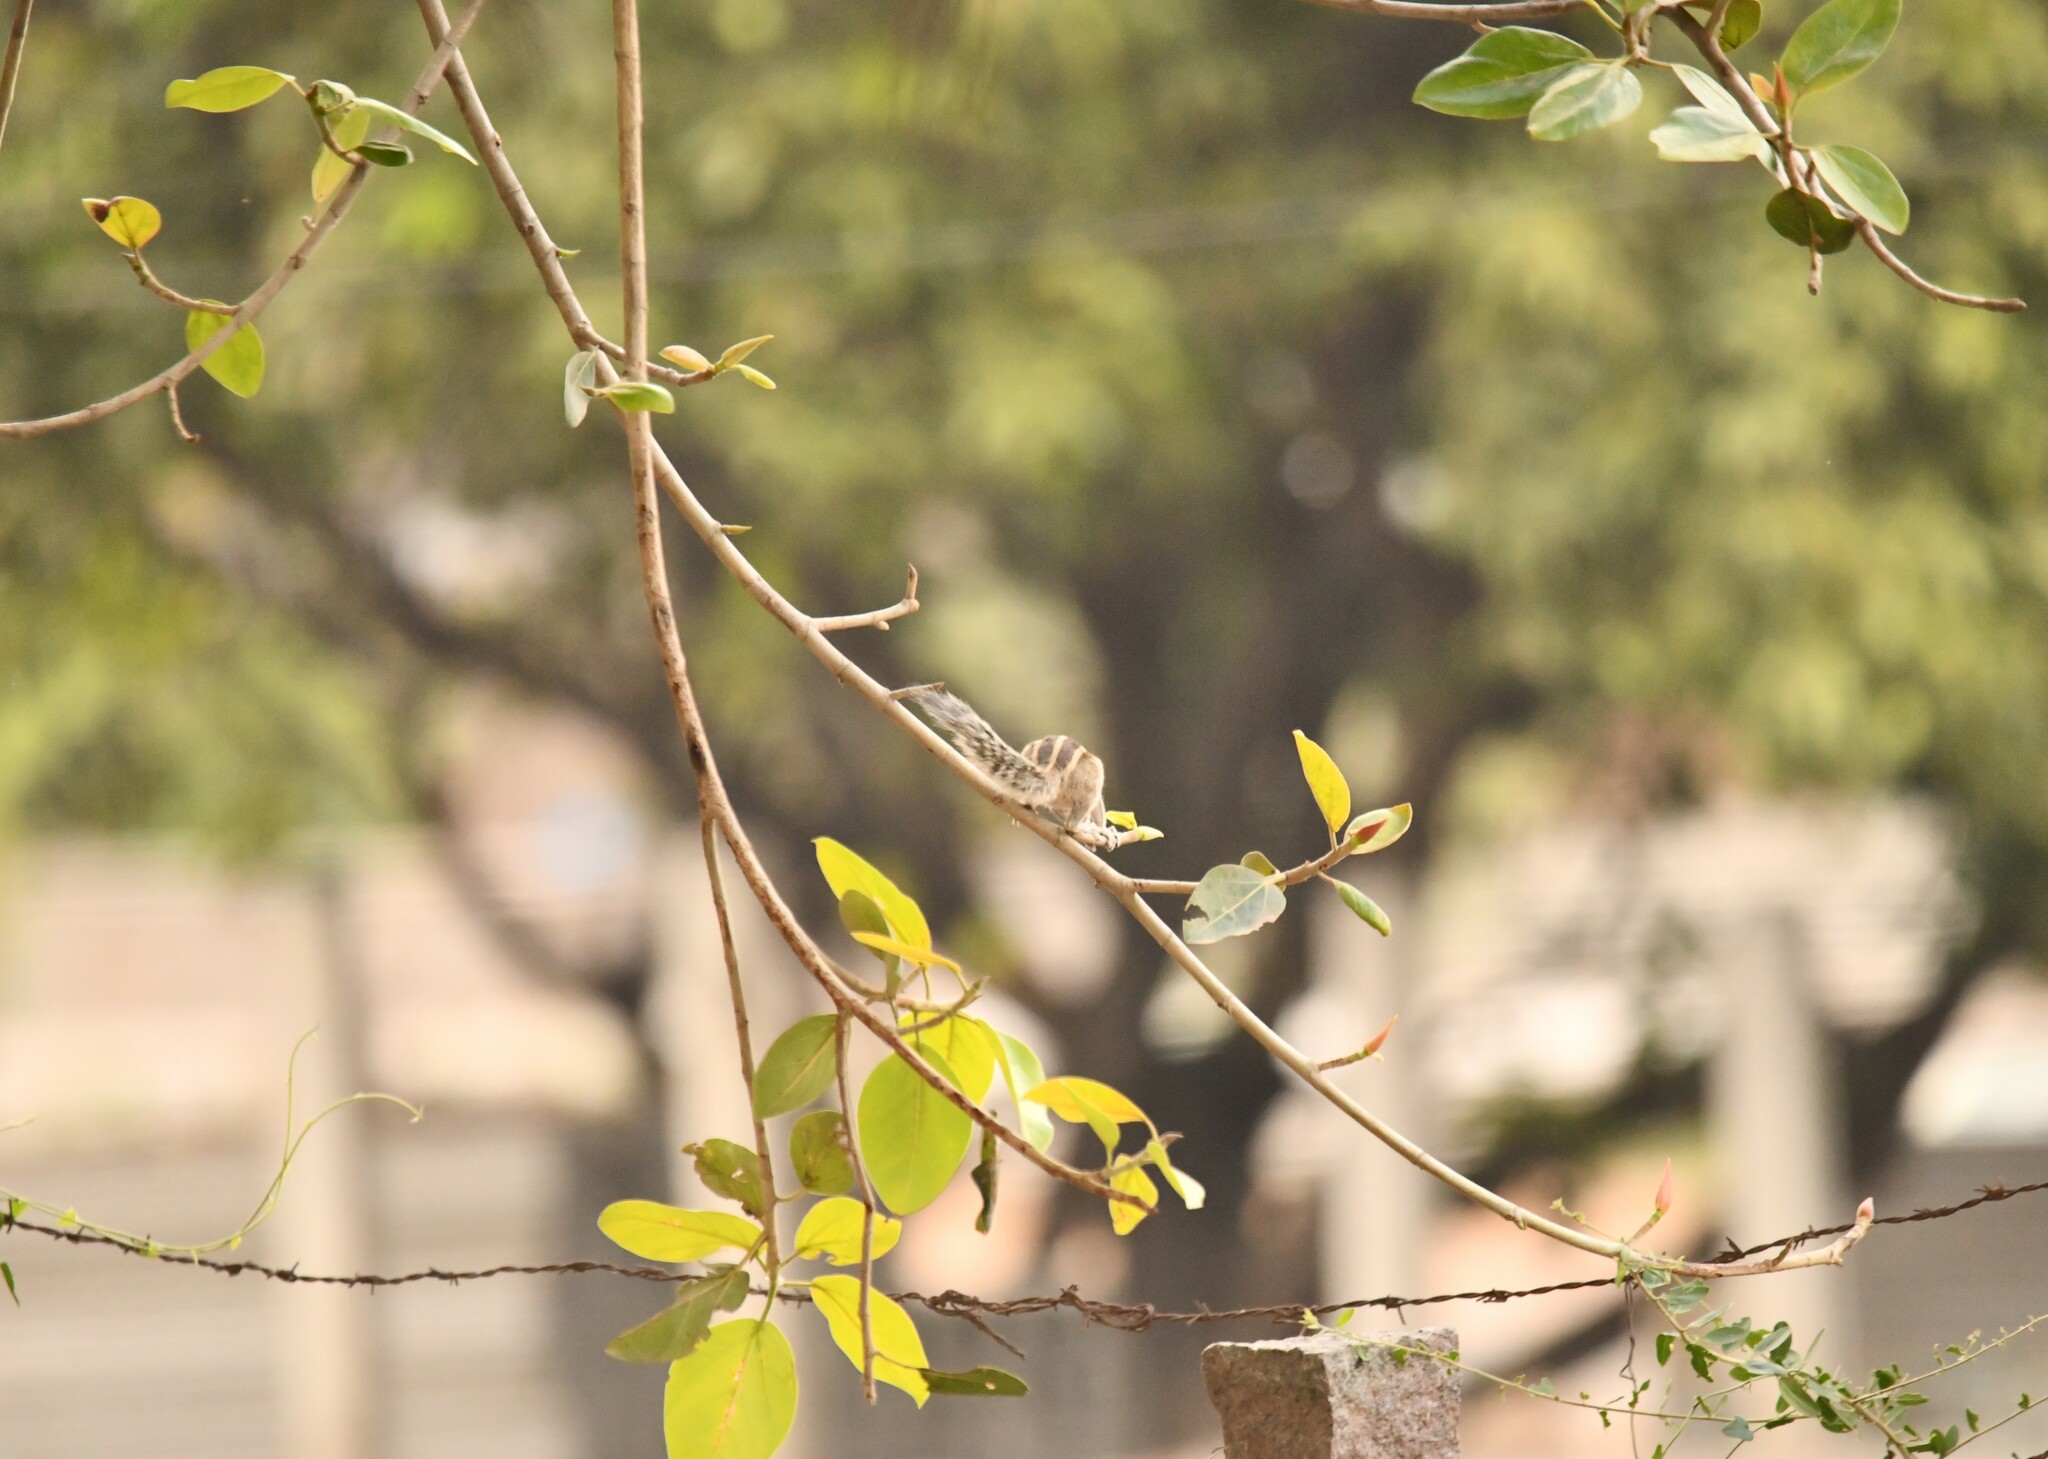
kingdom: Animalia
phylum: Chordata
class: Mammalia
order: Rodentia
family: Sciuridae
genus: Funambulus
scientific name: Funambulus pennantii
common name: Northern palm squirrel
